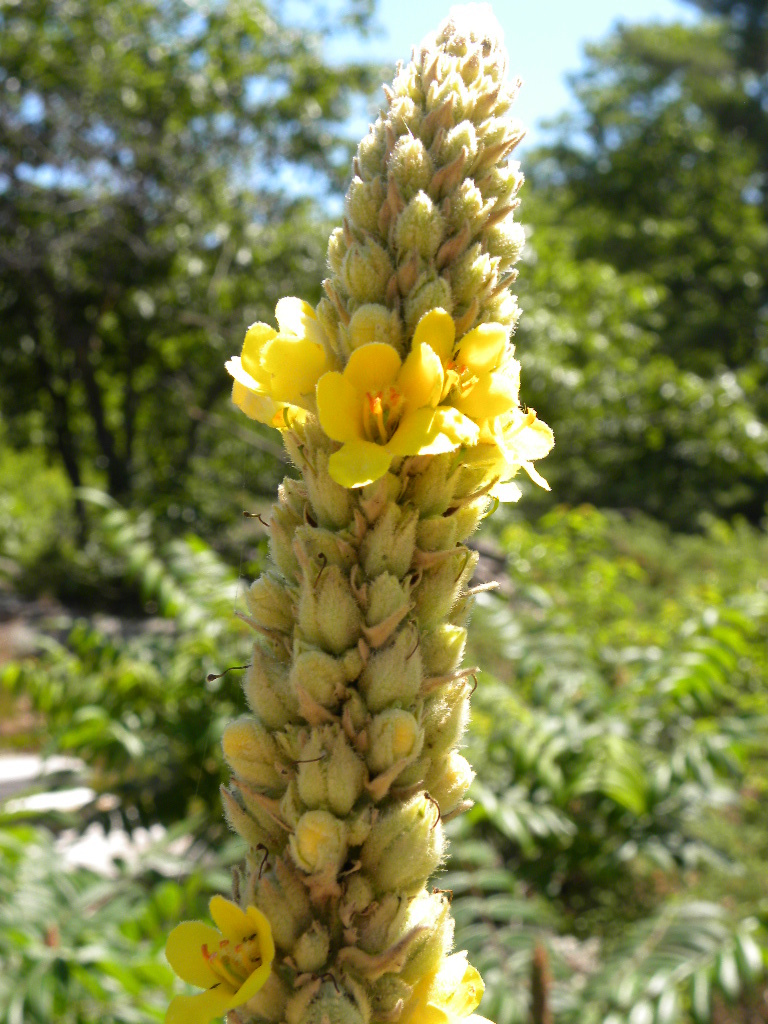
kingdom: Plantae
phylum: Tracheophyta
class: Magnoliopsida
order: Lamiales
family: Scrophulariaceae
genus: Verbascum
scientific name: Verbascum thapsus
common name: Common mullein
